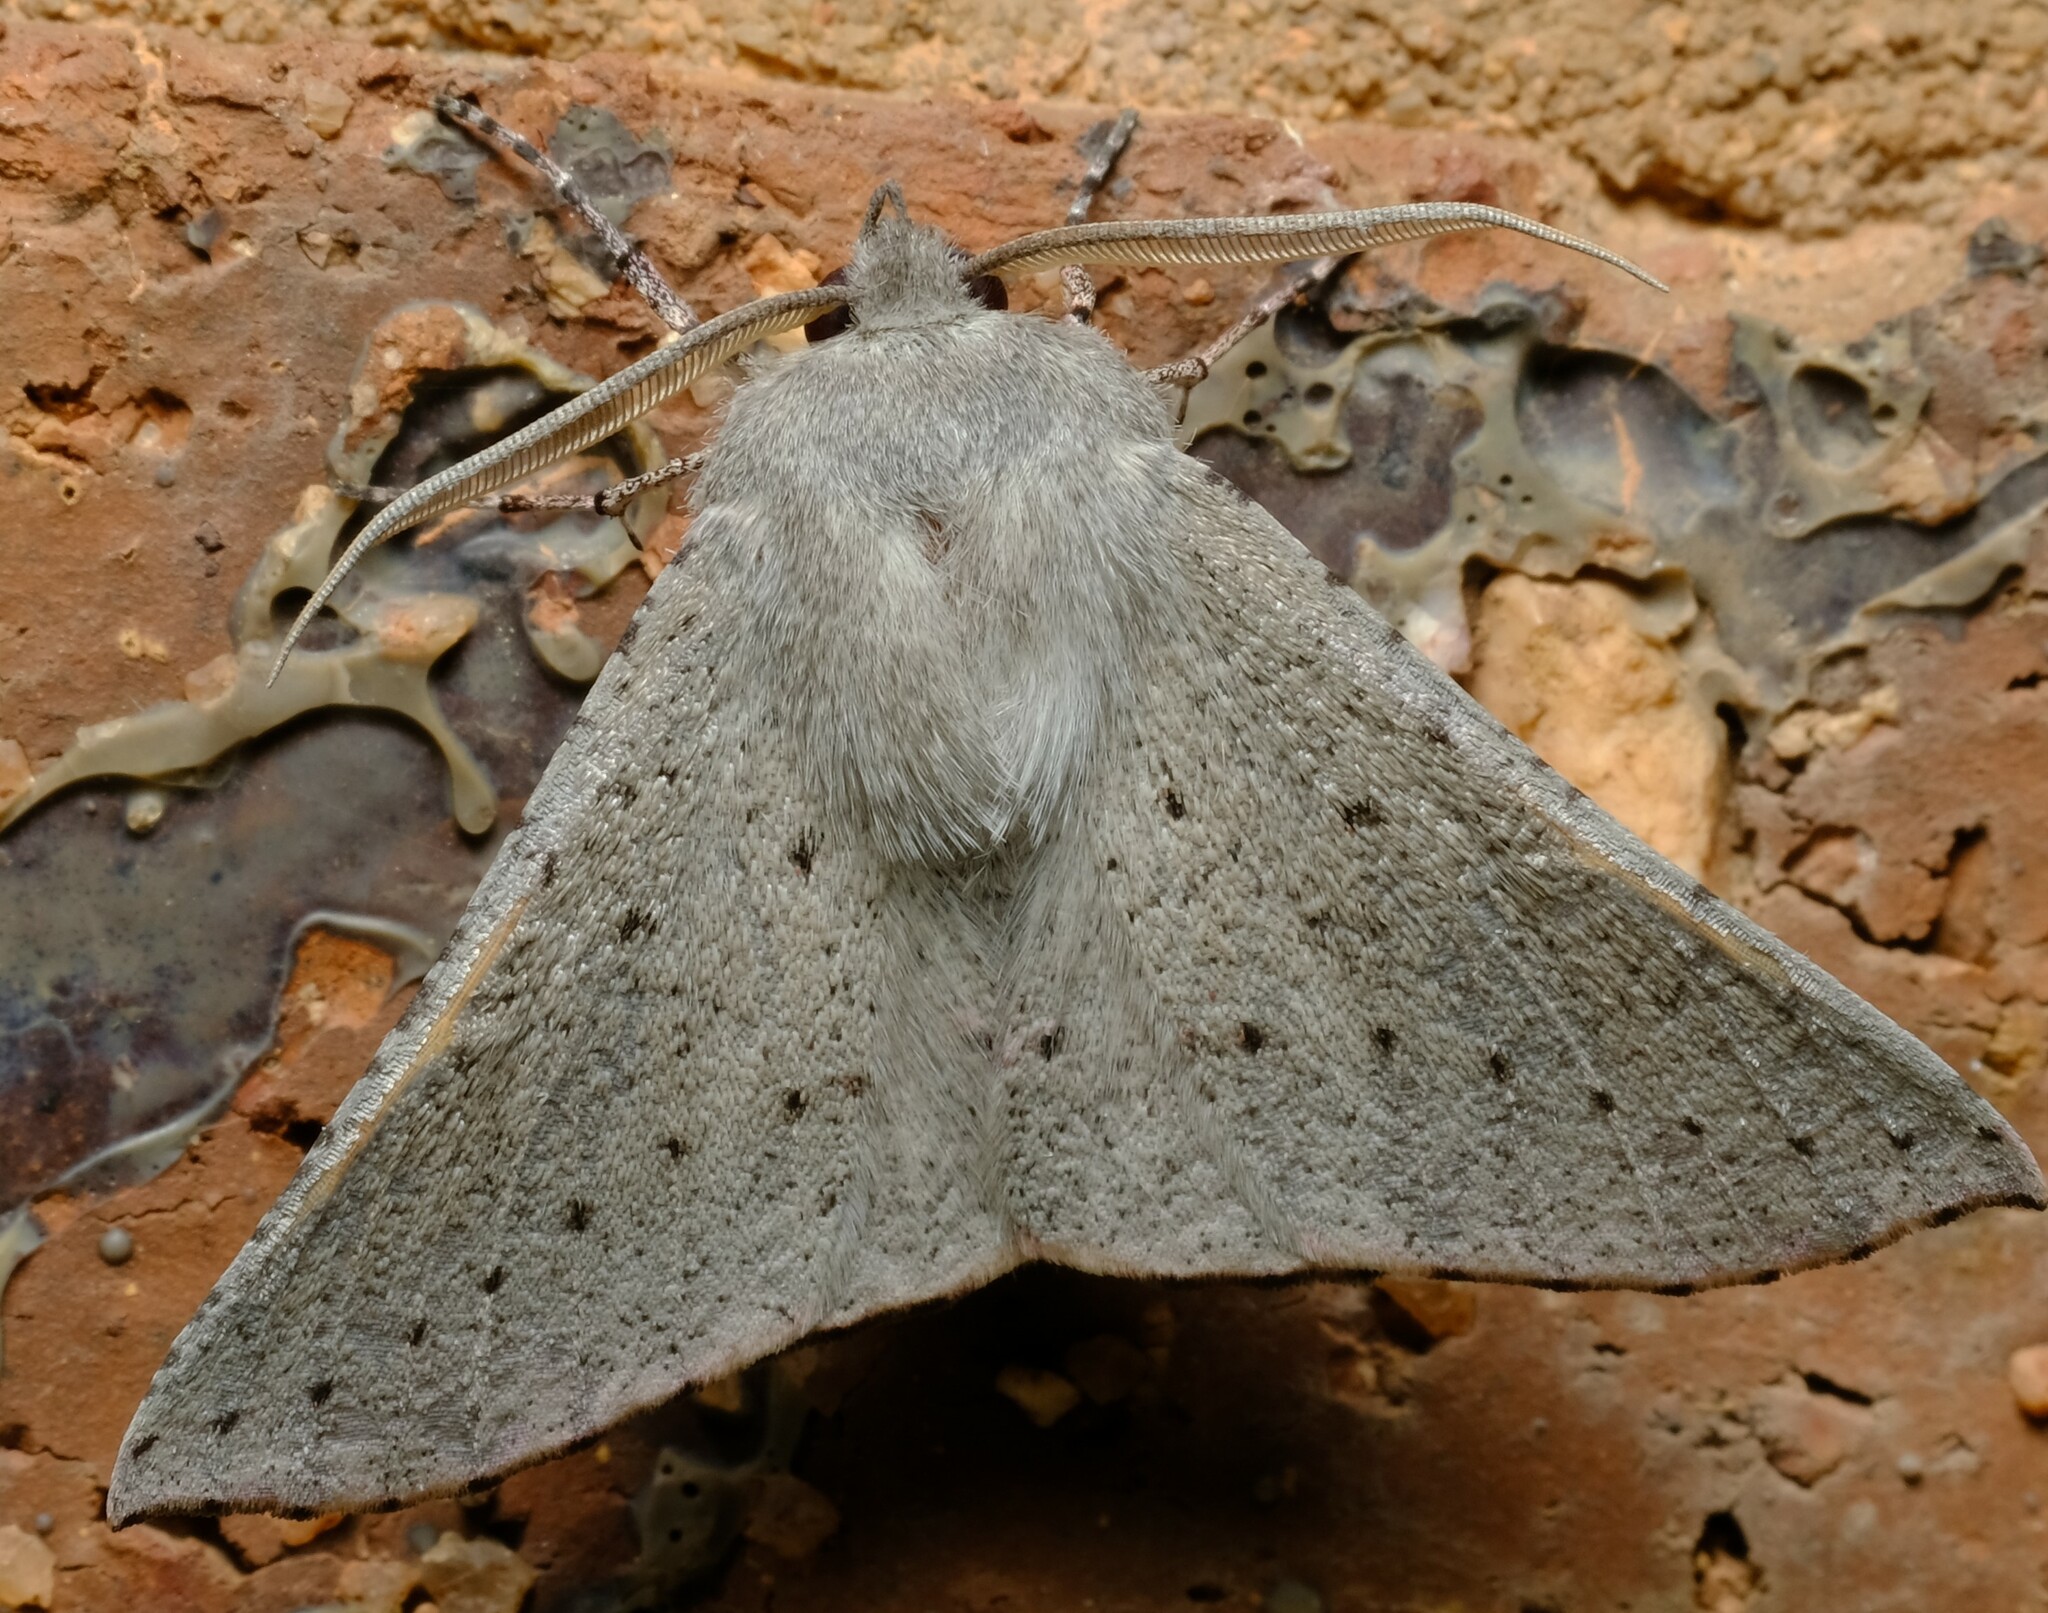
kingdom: Animalia
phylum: Arthropoda
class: Insecta
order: Lepidoptera
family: Geometridae
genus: Oenochroma
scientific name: Oenochroma subustaria
